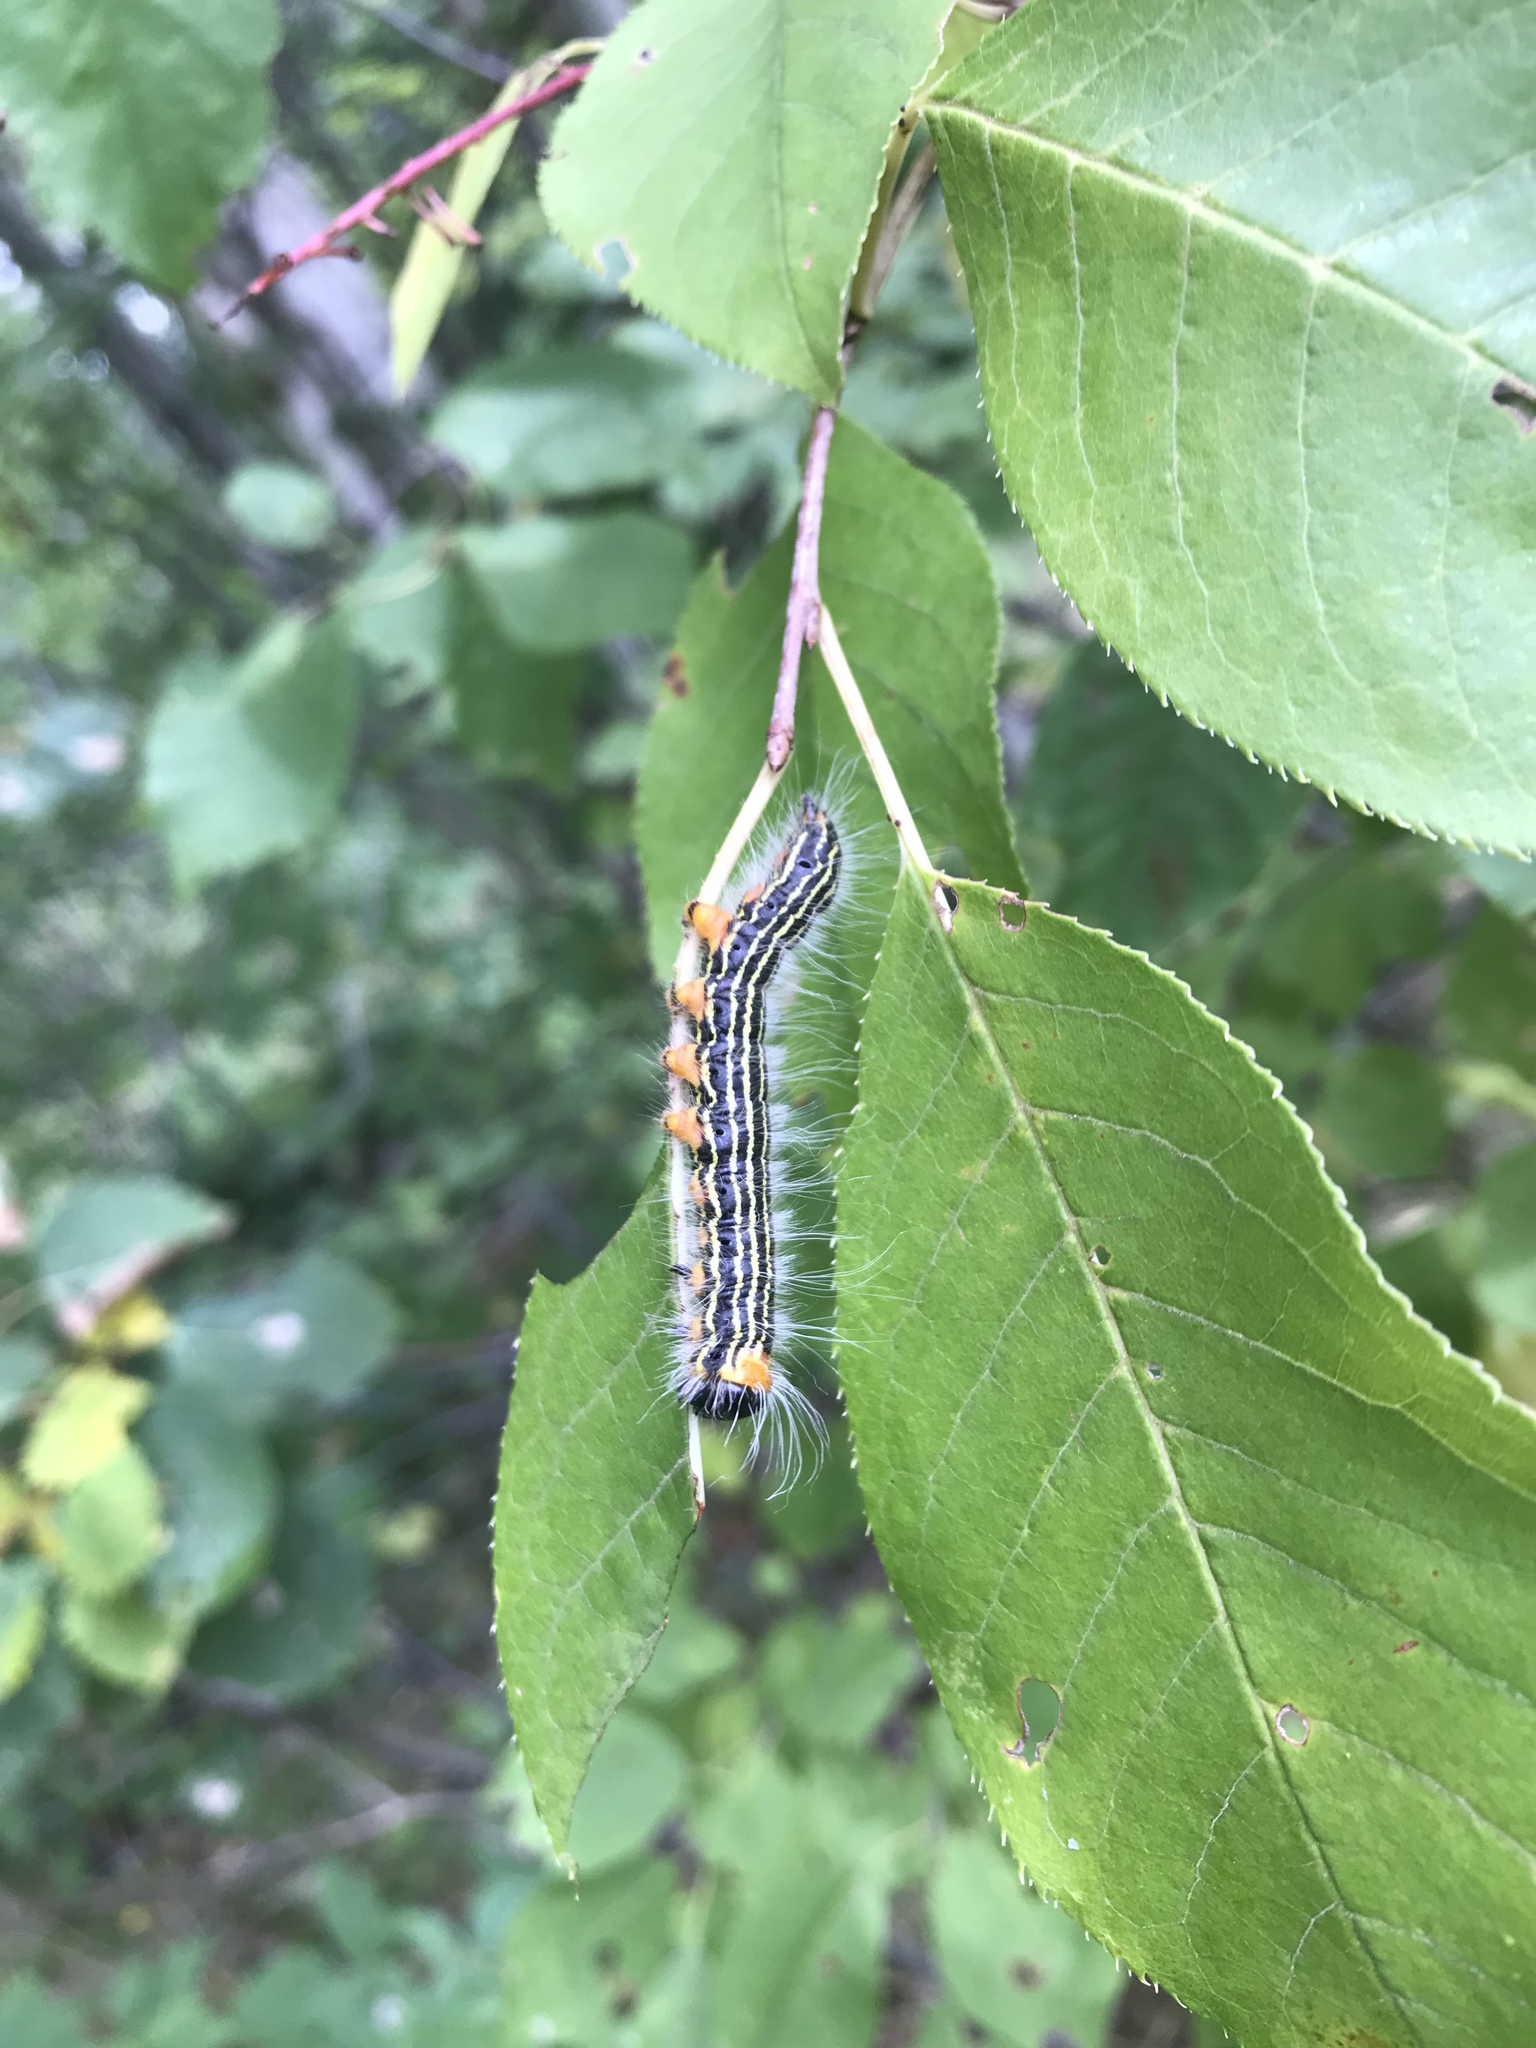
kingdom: Animalia
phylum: Arthropoda
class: Insecta
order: Lepidoptera
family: Notodontidae
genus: Datana
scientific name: Datana ministra
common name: Yellow-necked caterpillar moth
